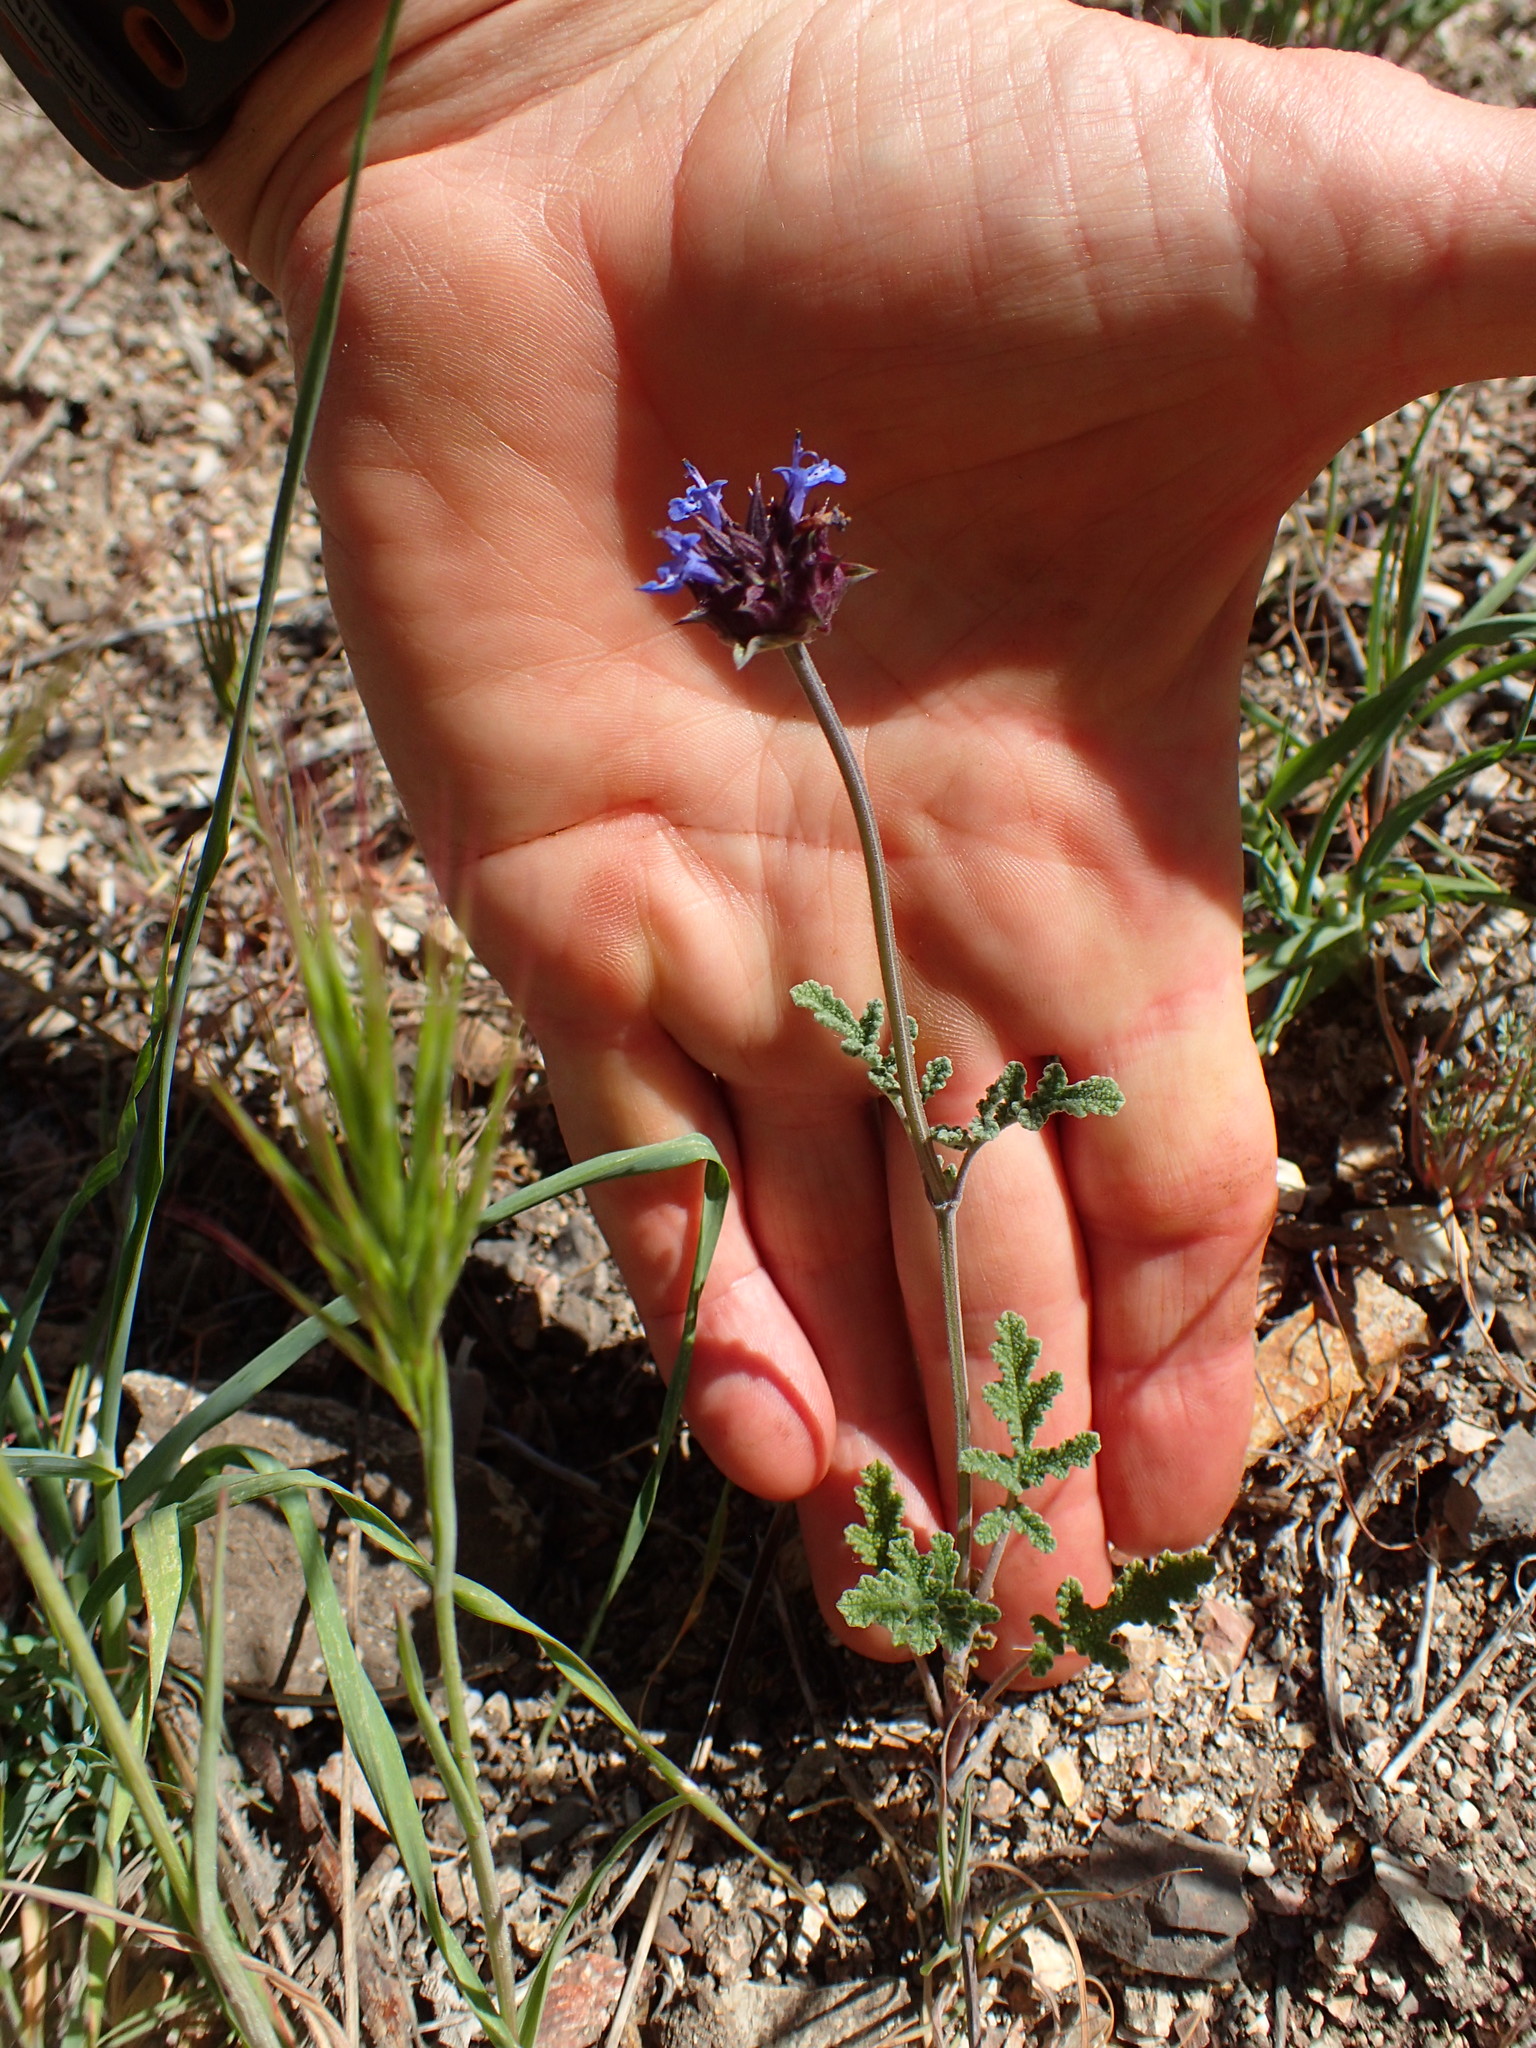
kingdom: Plantae
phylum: Tracheophyta
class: Magnoliopsida
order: Lamiales
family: Lamiaceae
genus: Salvia
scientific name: Salvia columbariae
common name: Chia
